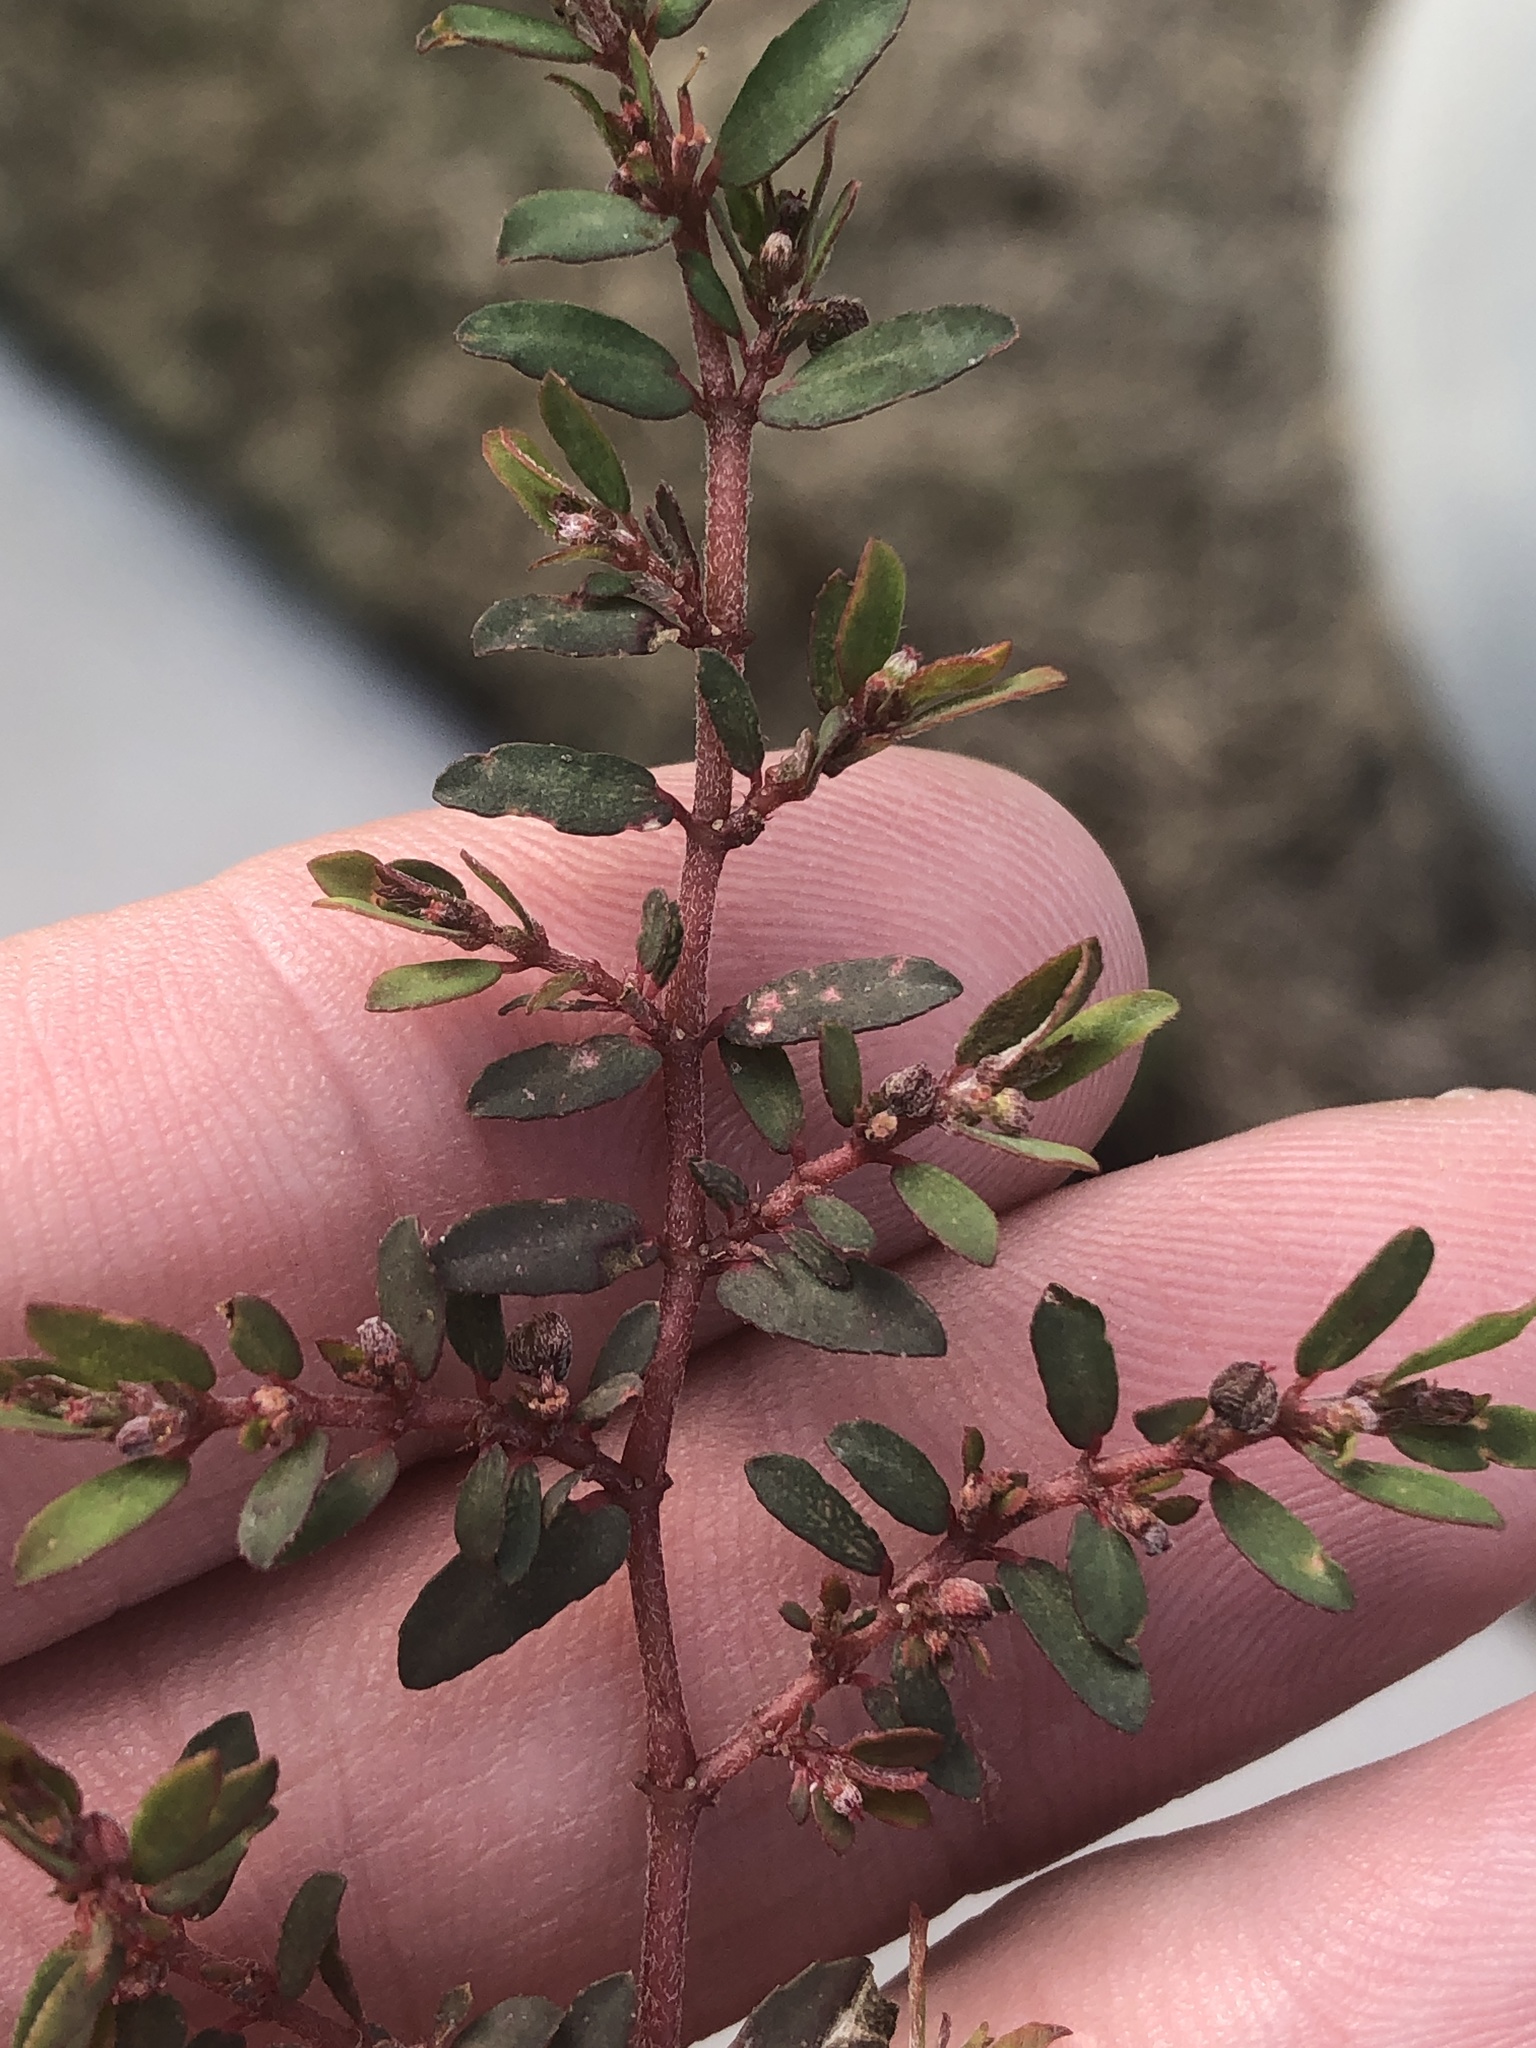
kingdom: Plantae
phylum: Tracheophyta
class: Magnoliopsida
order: Malpighiales
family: Euphorbiaceae
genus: Euphorbia
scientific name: Euphorbia maculata
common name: Spotted spurge
